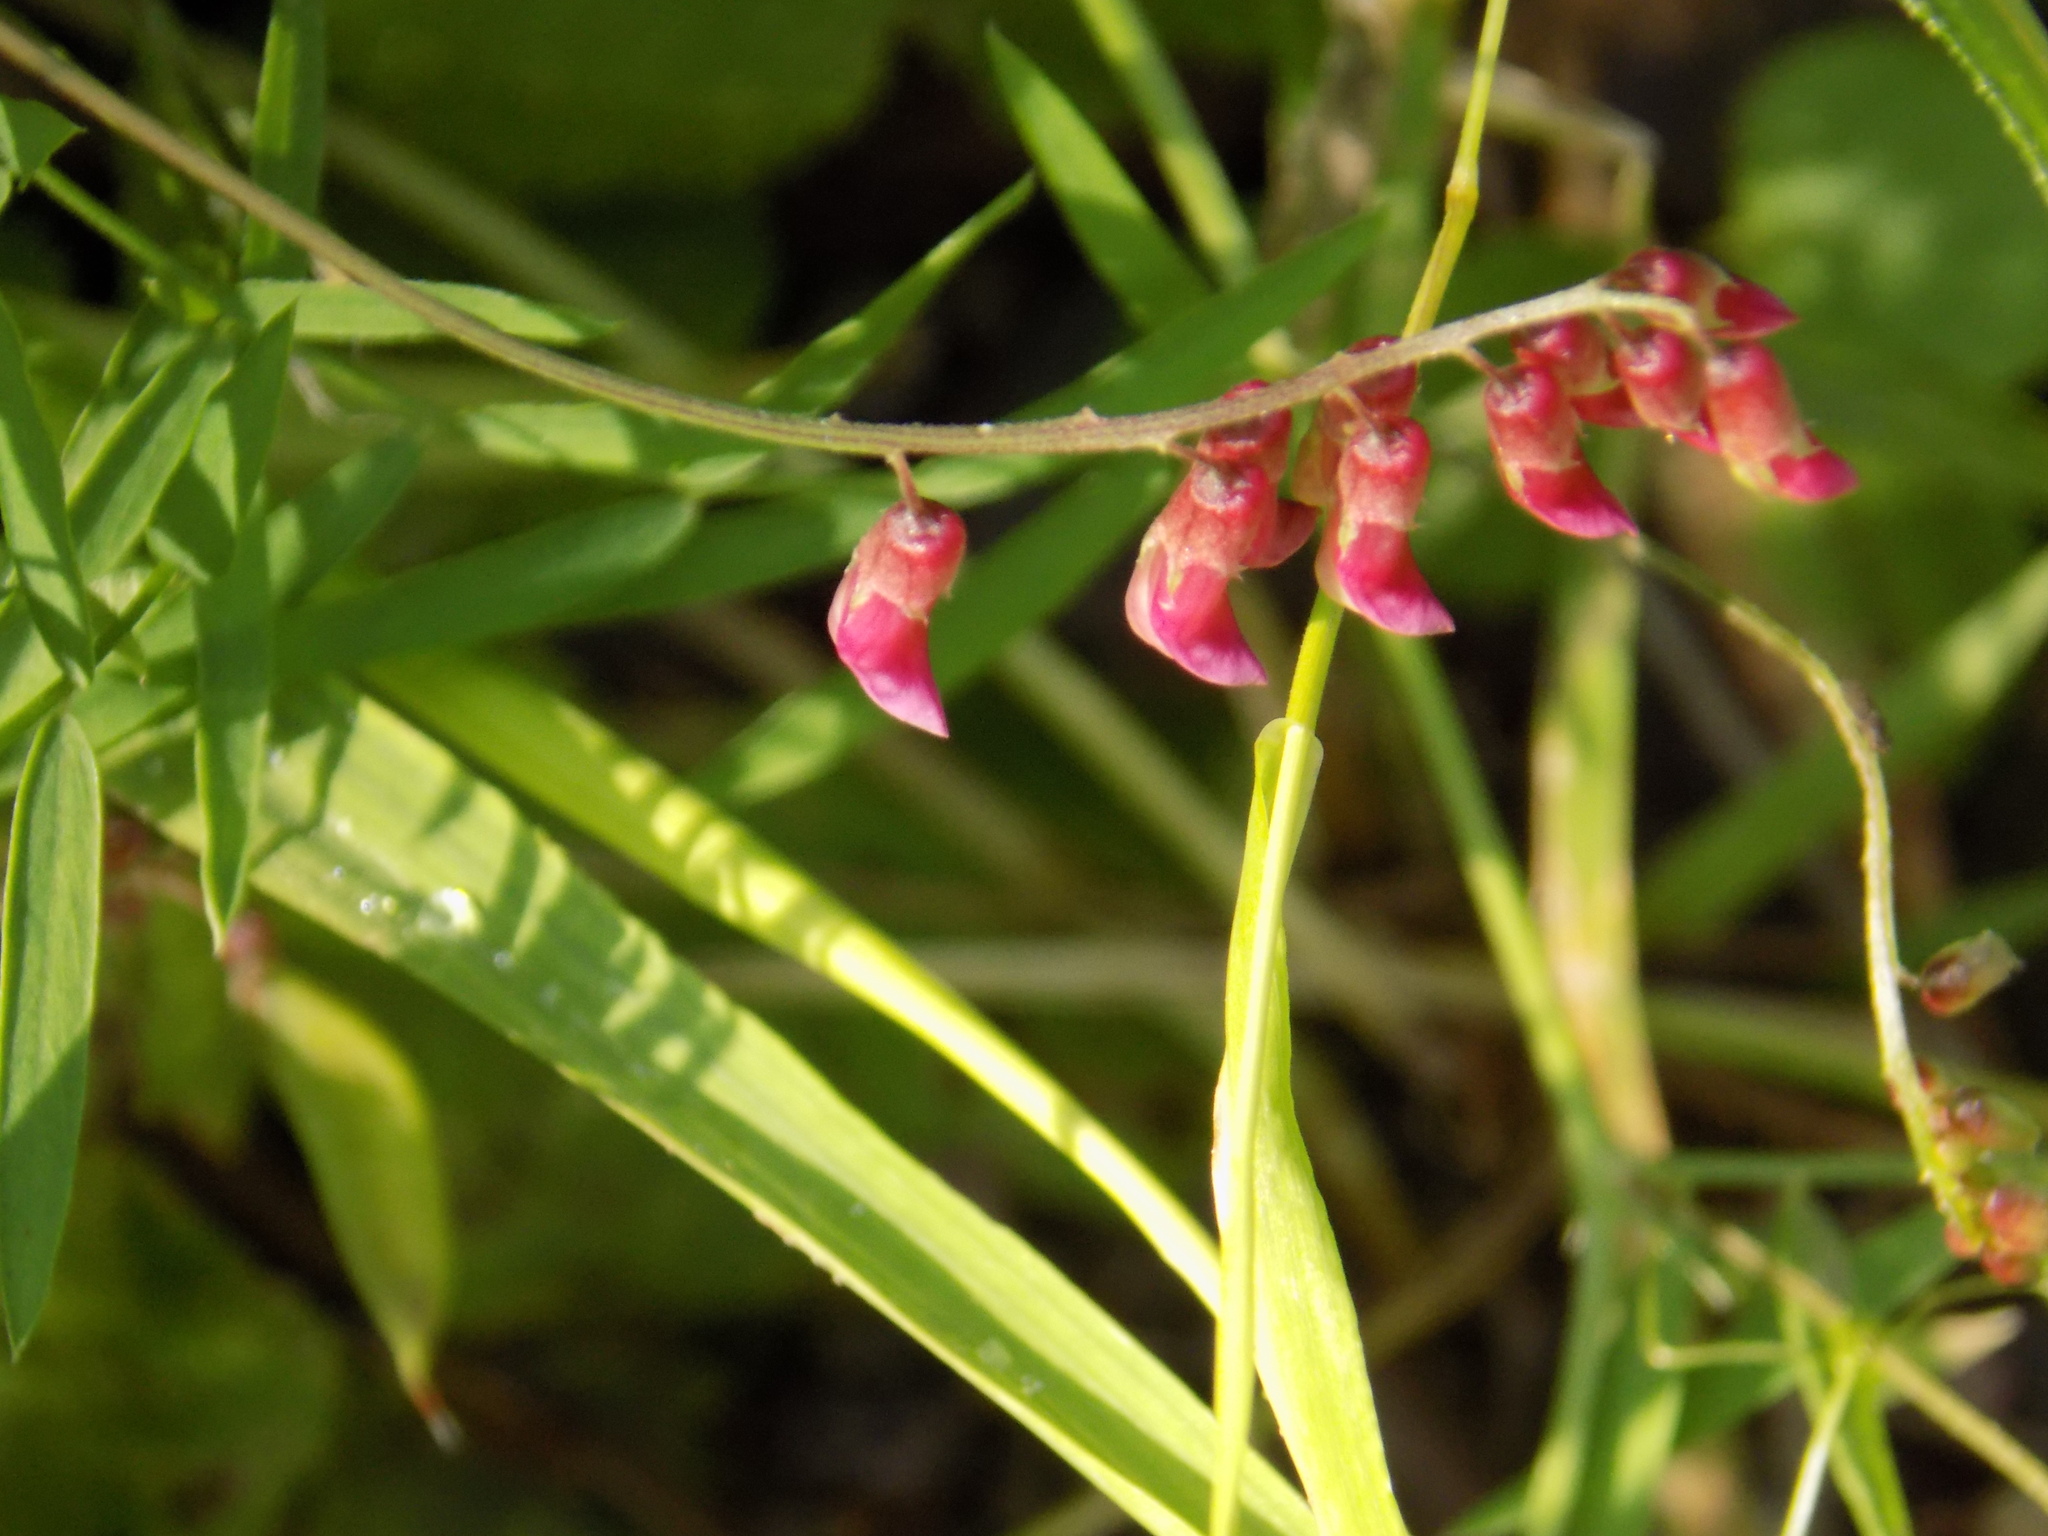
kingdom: Plantae
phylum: Tracheophyta
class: Magnoliopsida
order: Fabales
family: Fabaceae
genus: Vicia
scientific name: Vicia megalotropis
